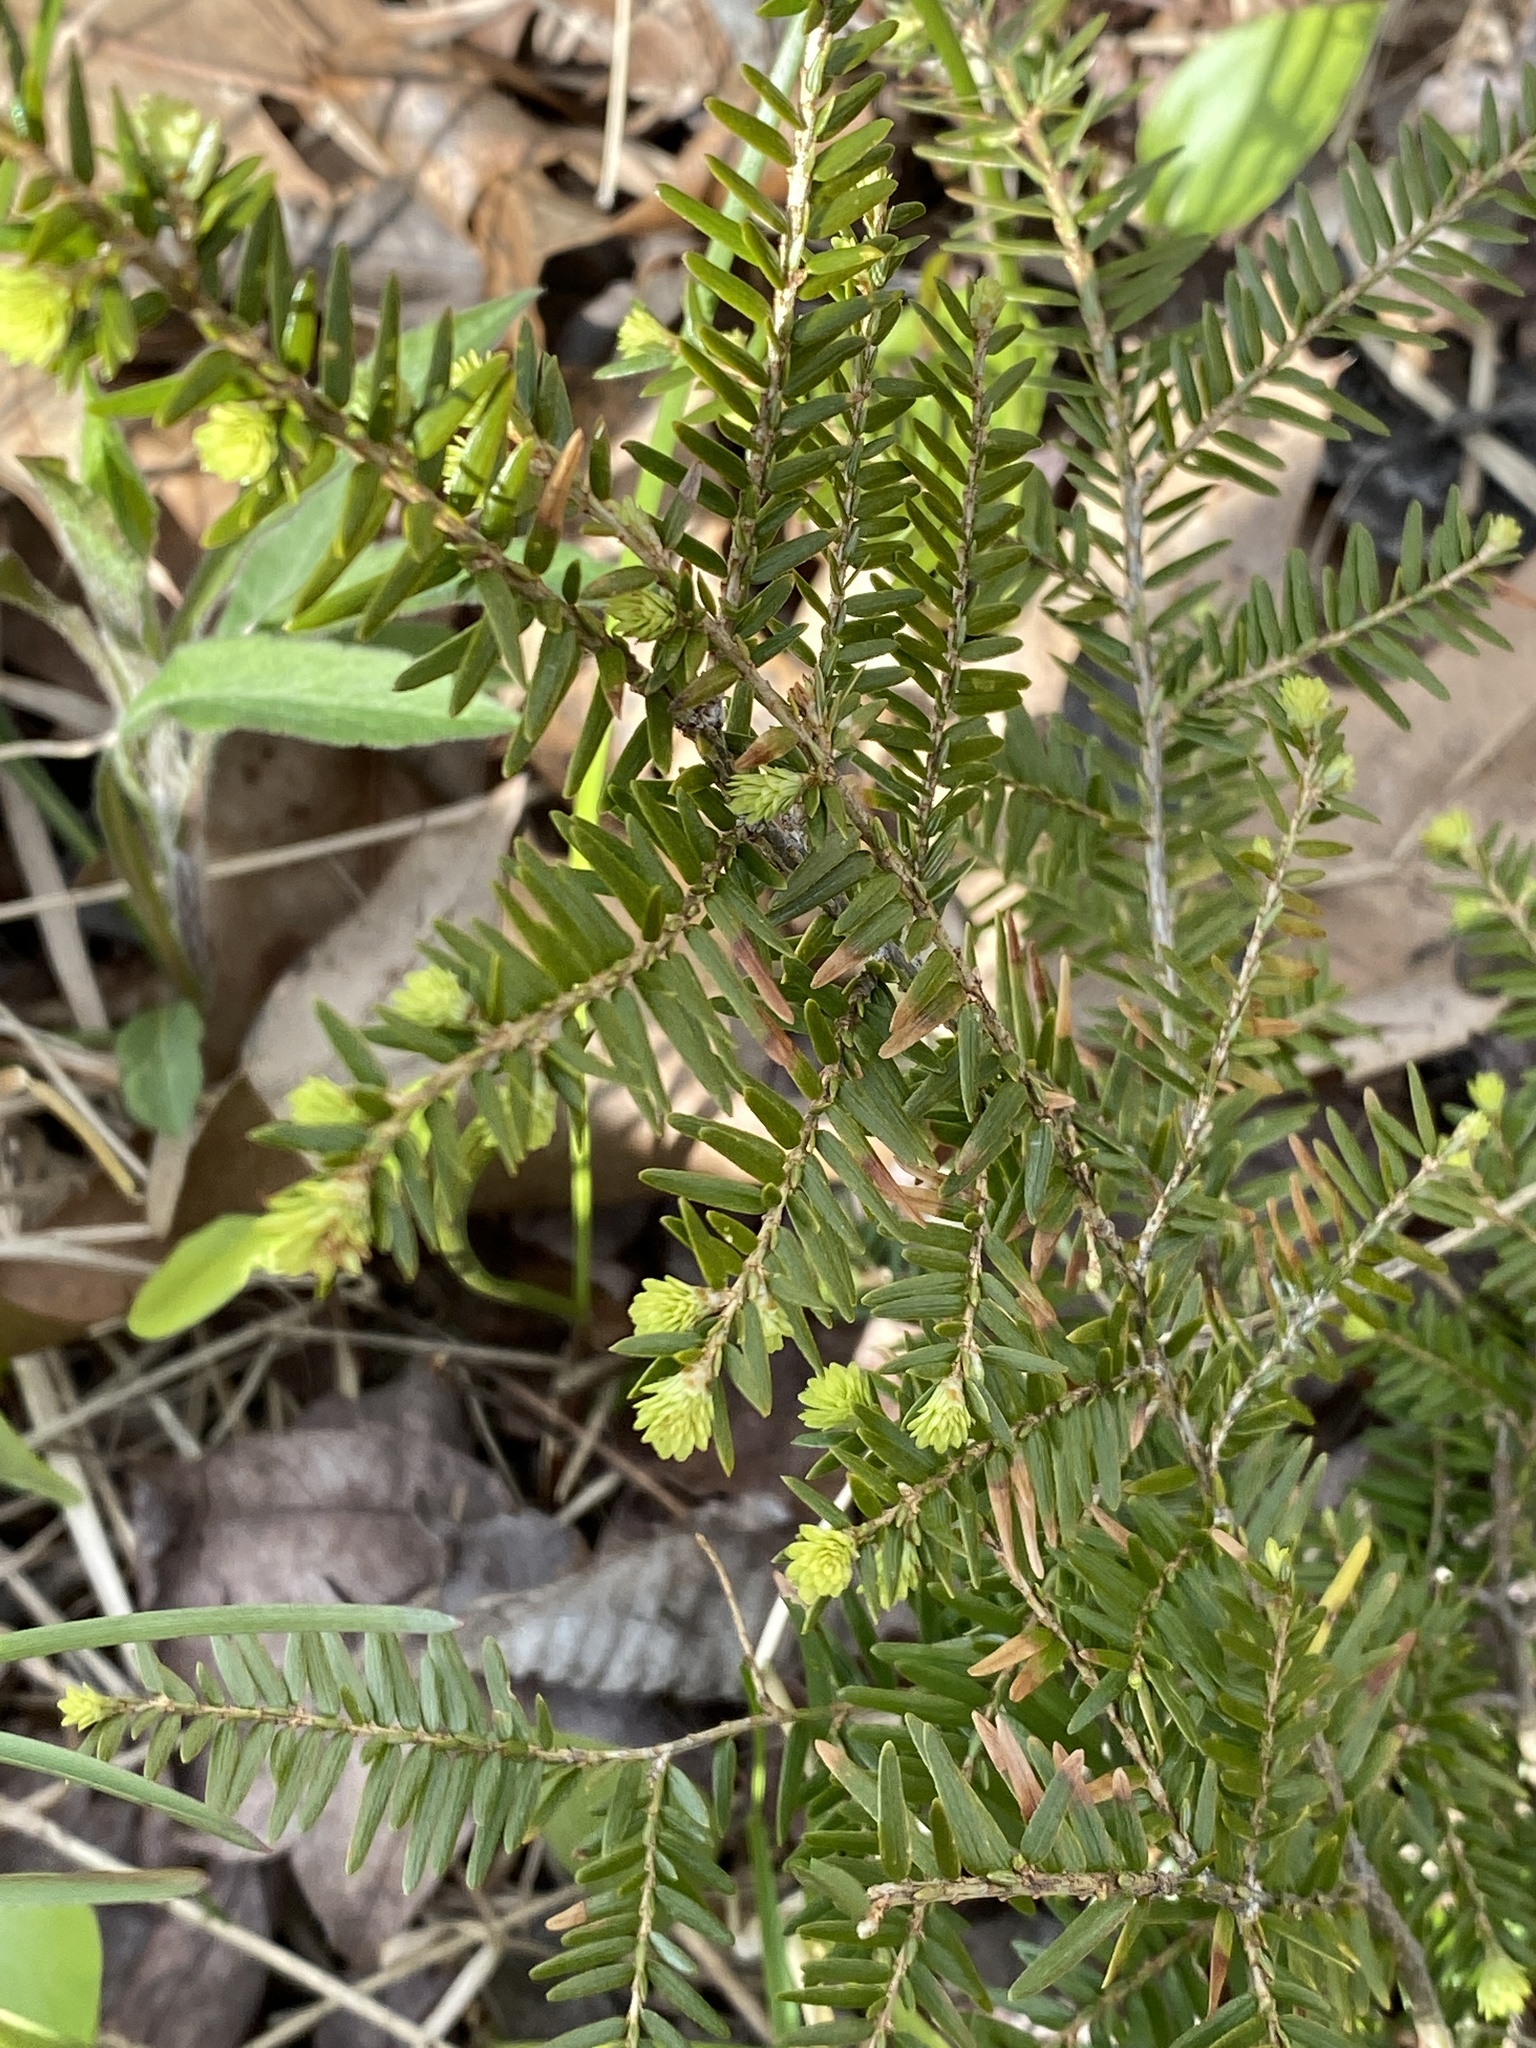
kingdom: Plantae
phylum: Tracheophyta
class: Pinopsida
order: Pinales
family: Pinaceae
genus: Tsuga
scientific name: Tsuga canadensis
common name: Eastern hemlock
